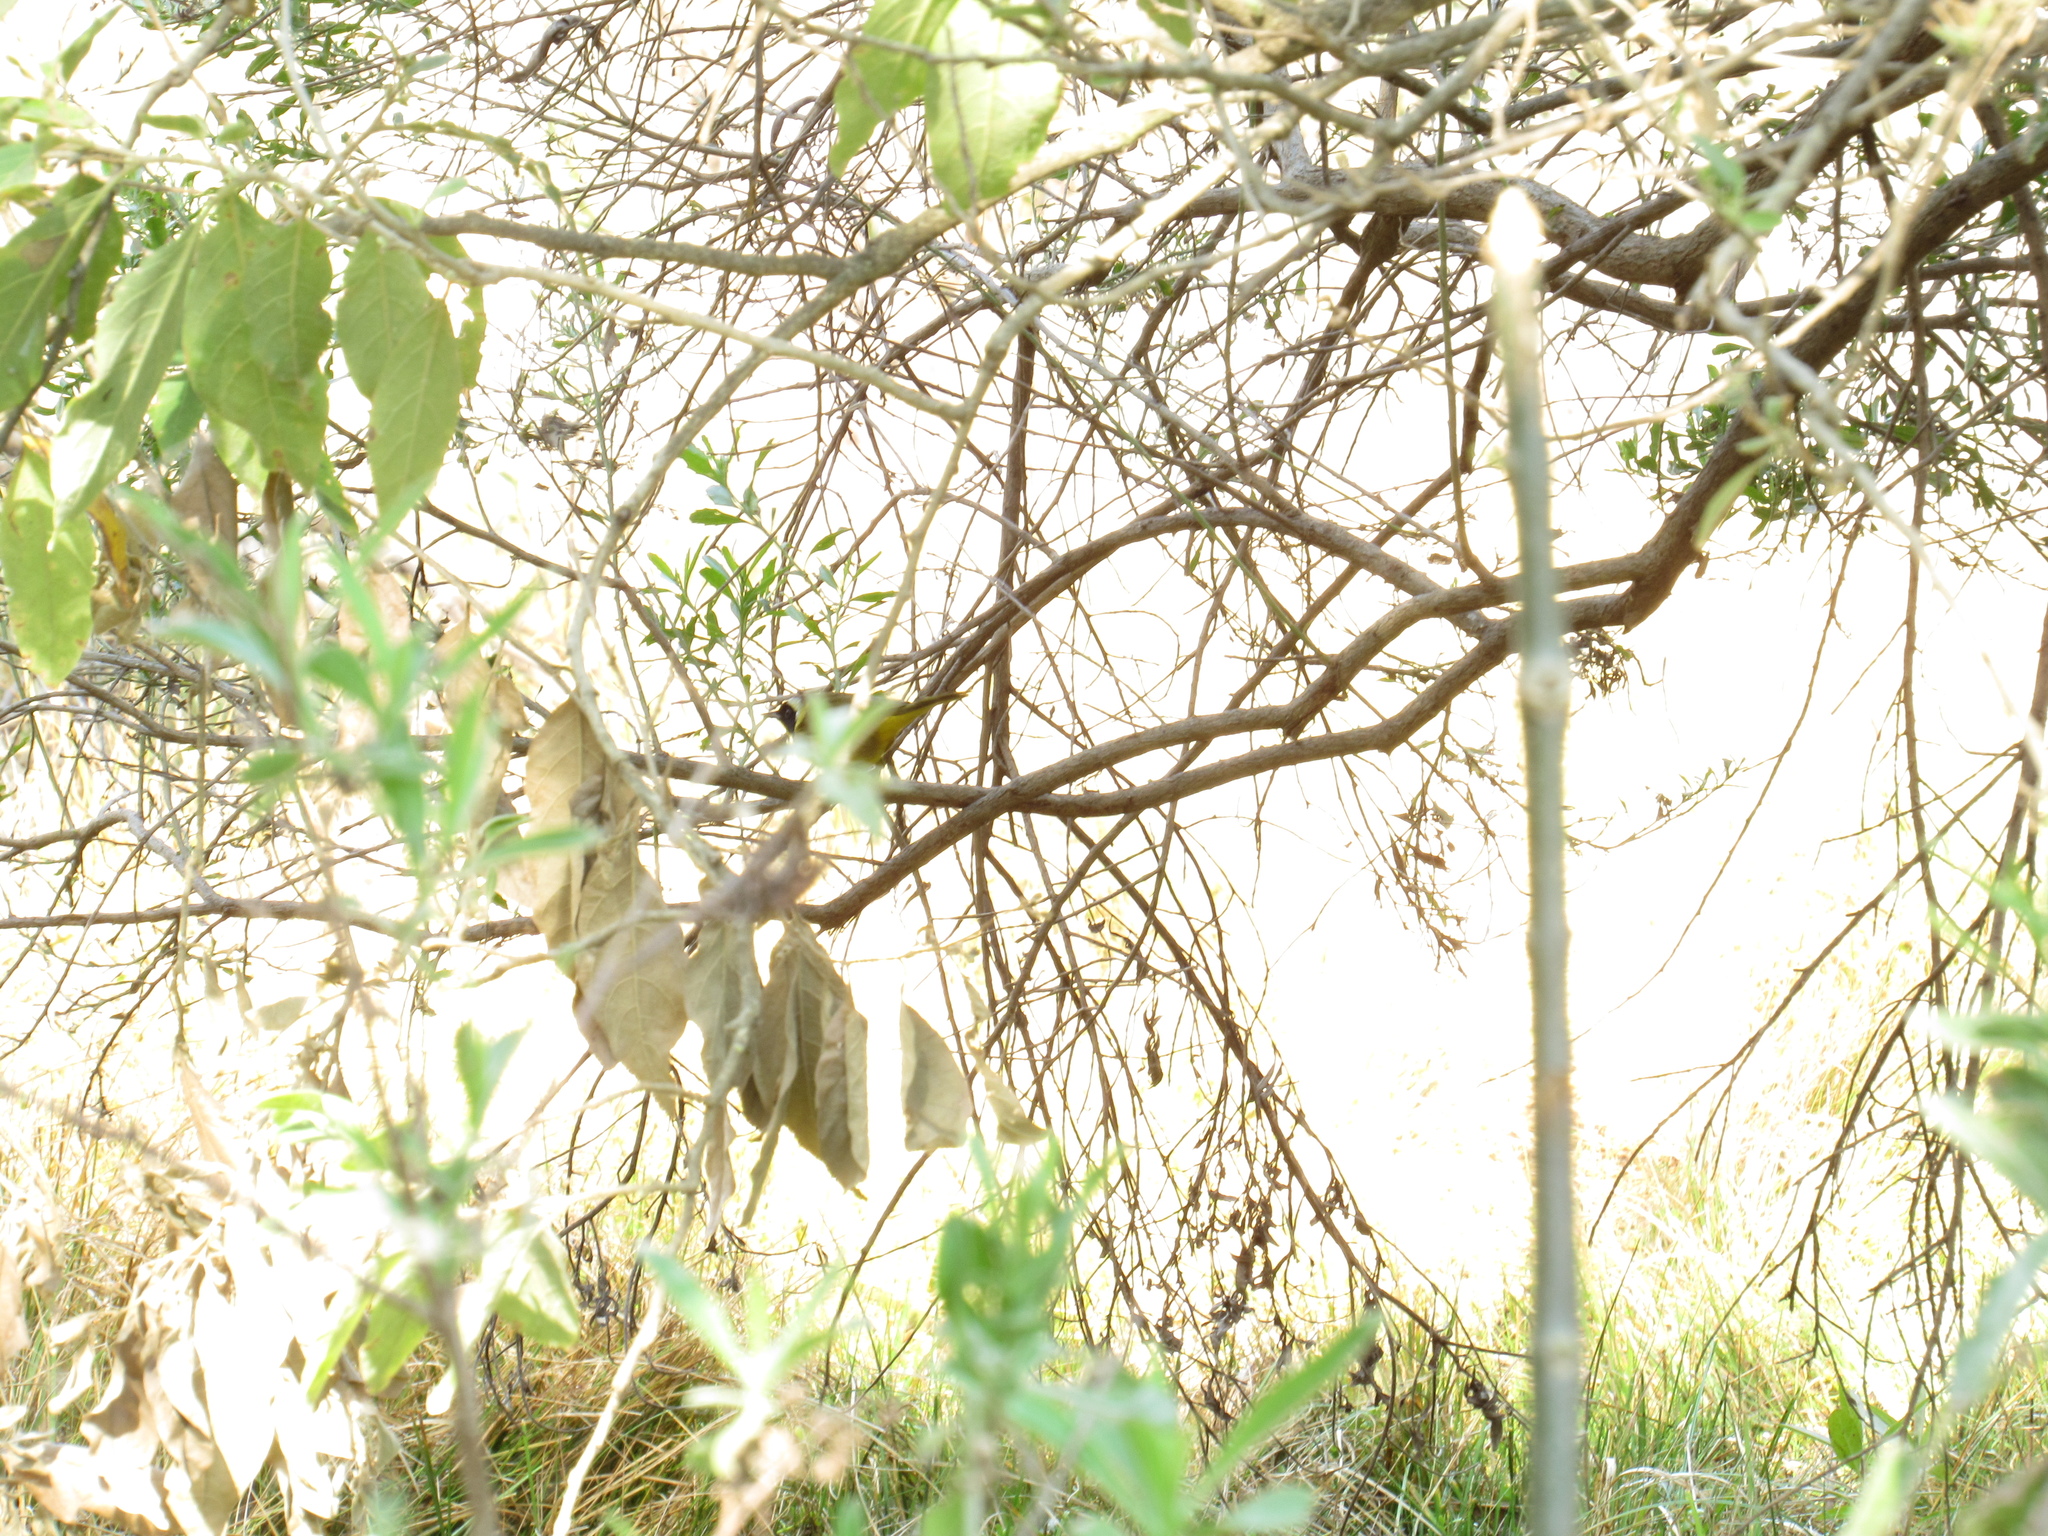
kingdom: Animalia
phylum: Chordata
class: Aves
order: Passeriformes
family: Parulidae
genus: Geothlypis
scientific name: Geothlypis trichas
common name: Common yellowthroat
